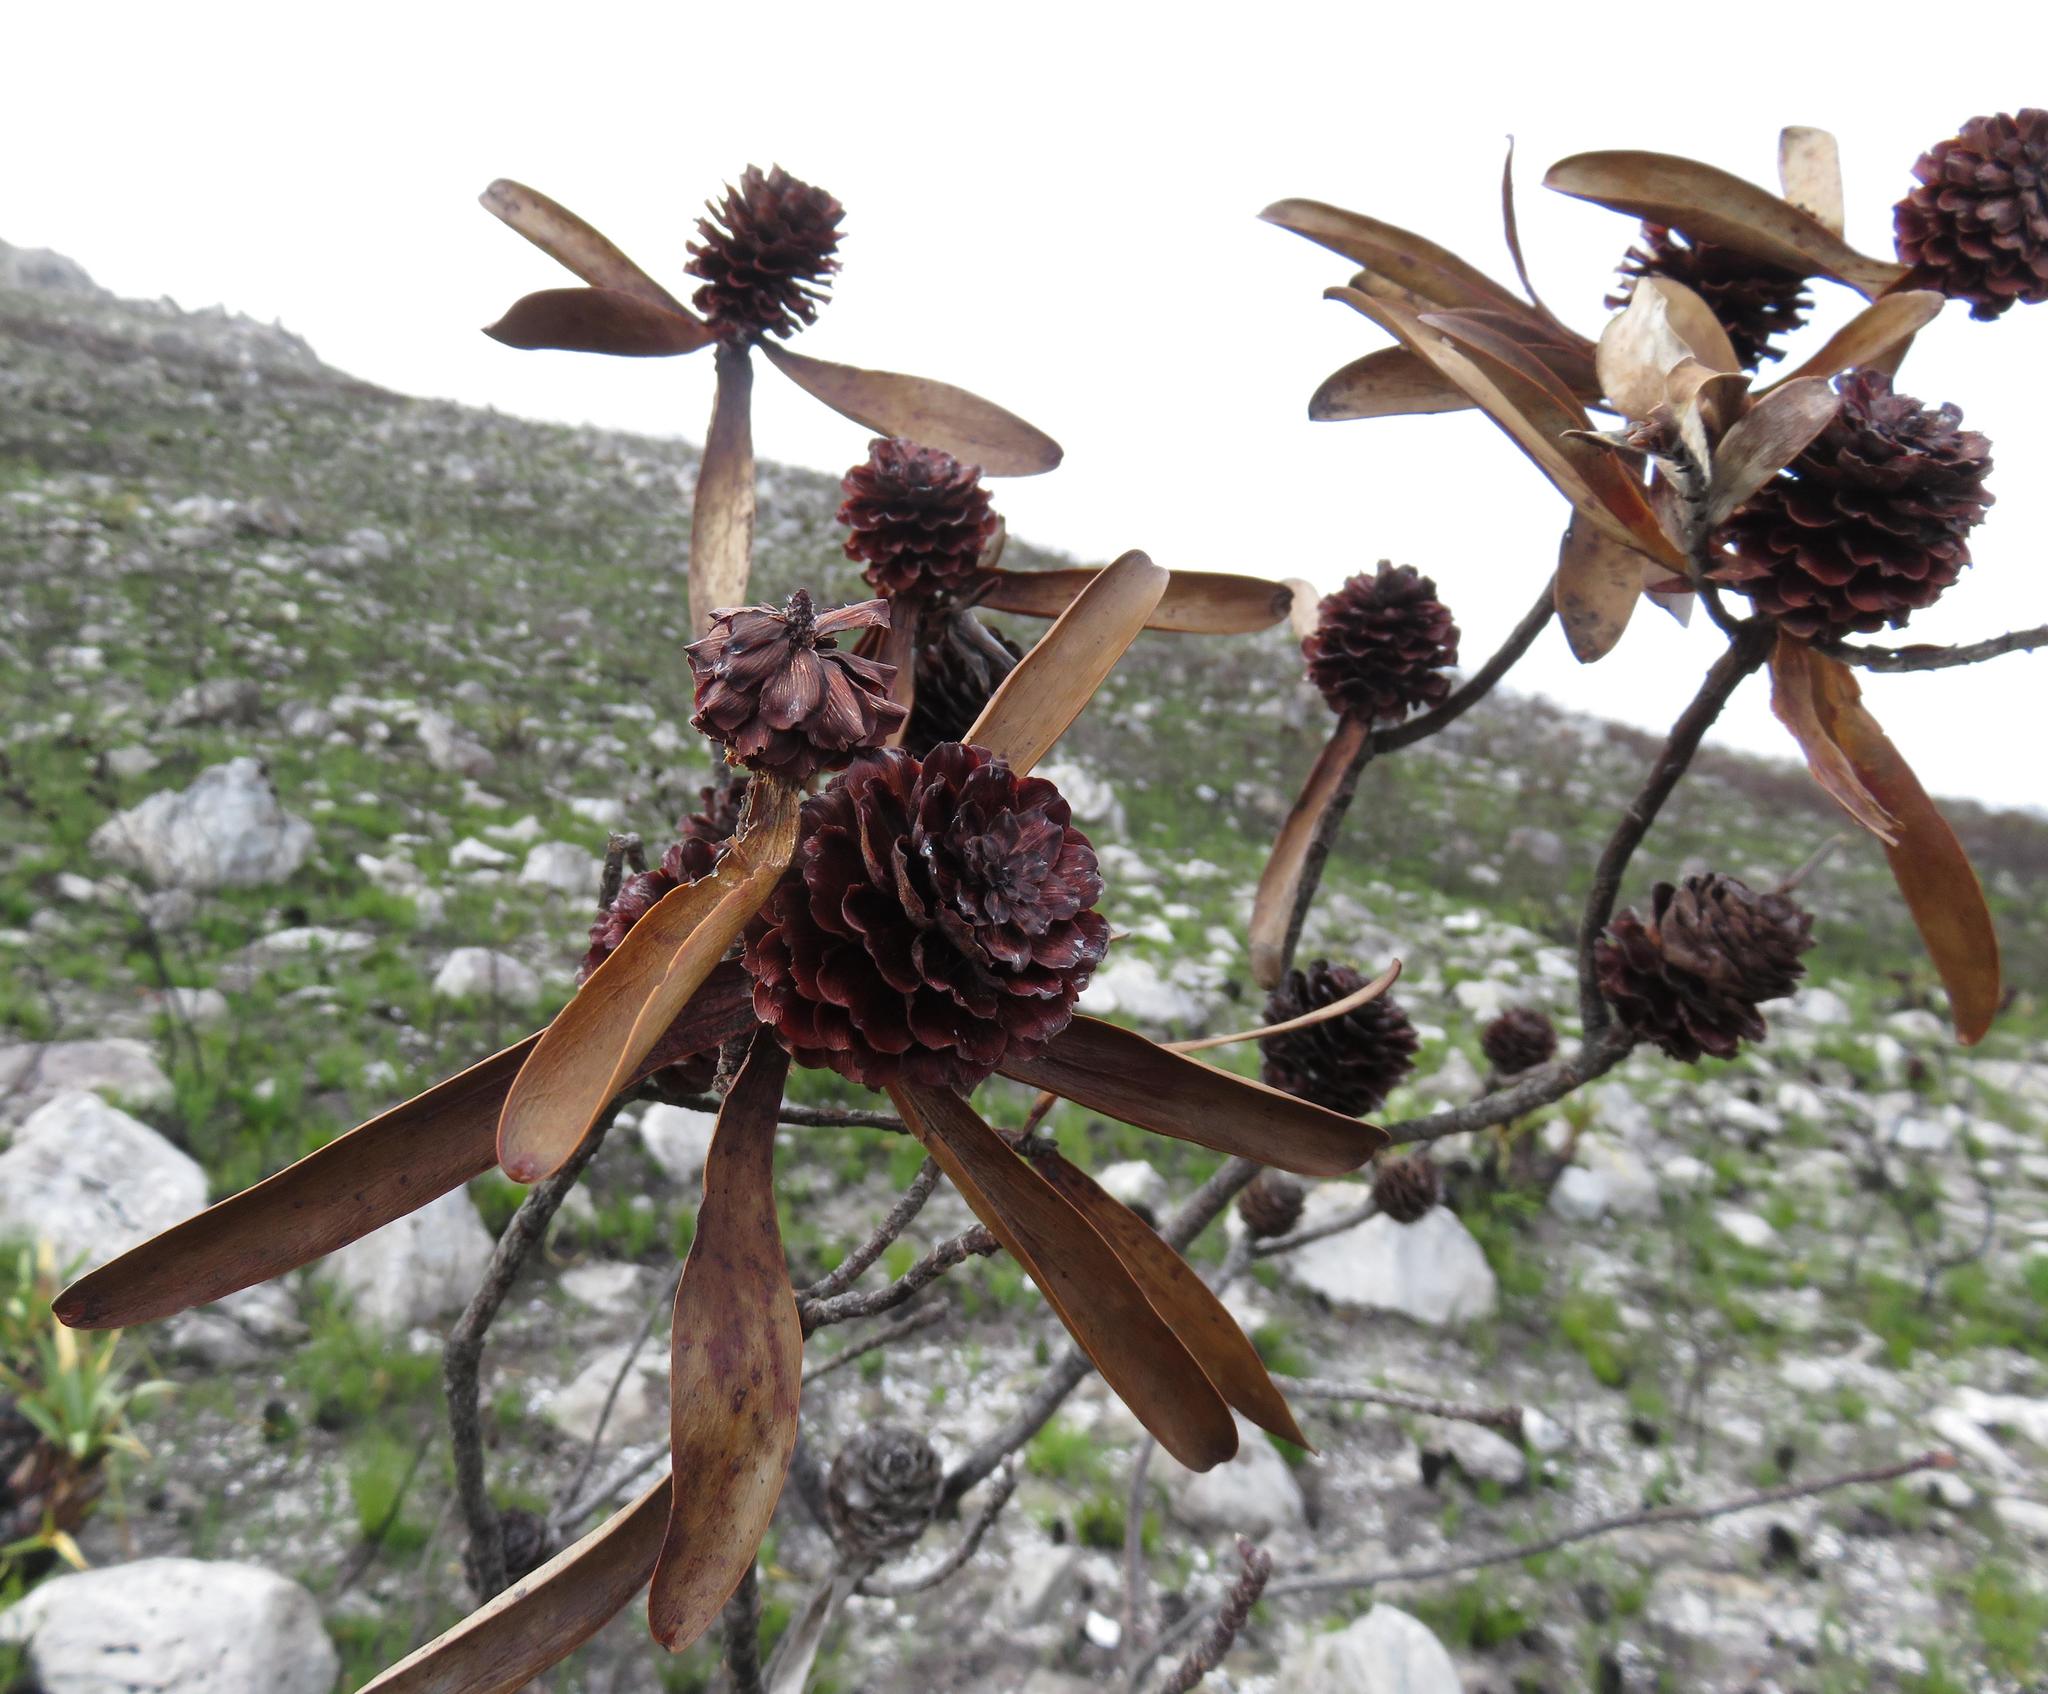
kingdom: Plantae
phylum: Tracheophyta
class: Magnoliopsida
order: Proteales
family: Proteaceae
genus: Leucadendron
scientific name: Leucadendron gandogeri
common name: Broad-leaf conebush
